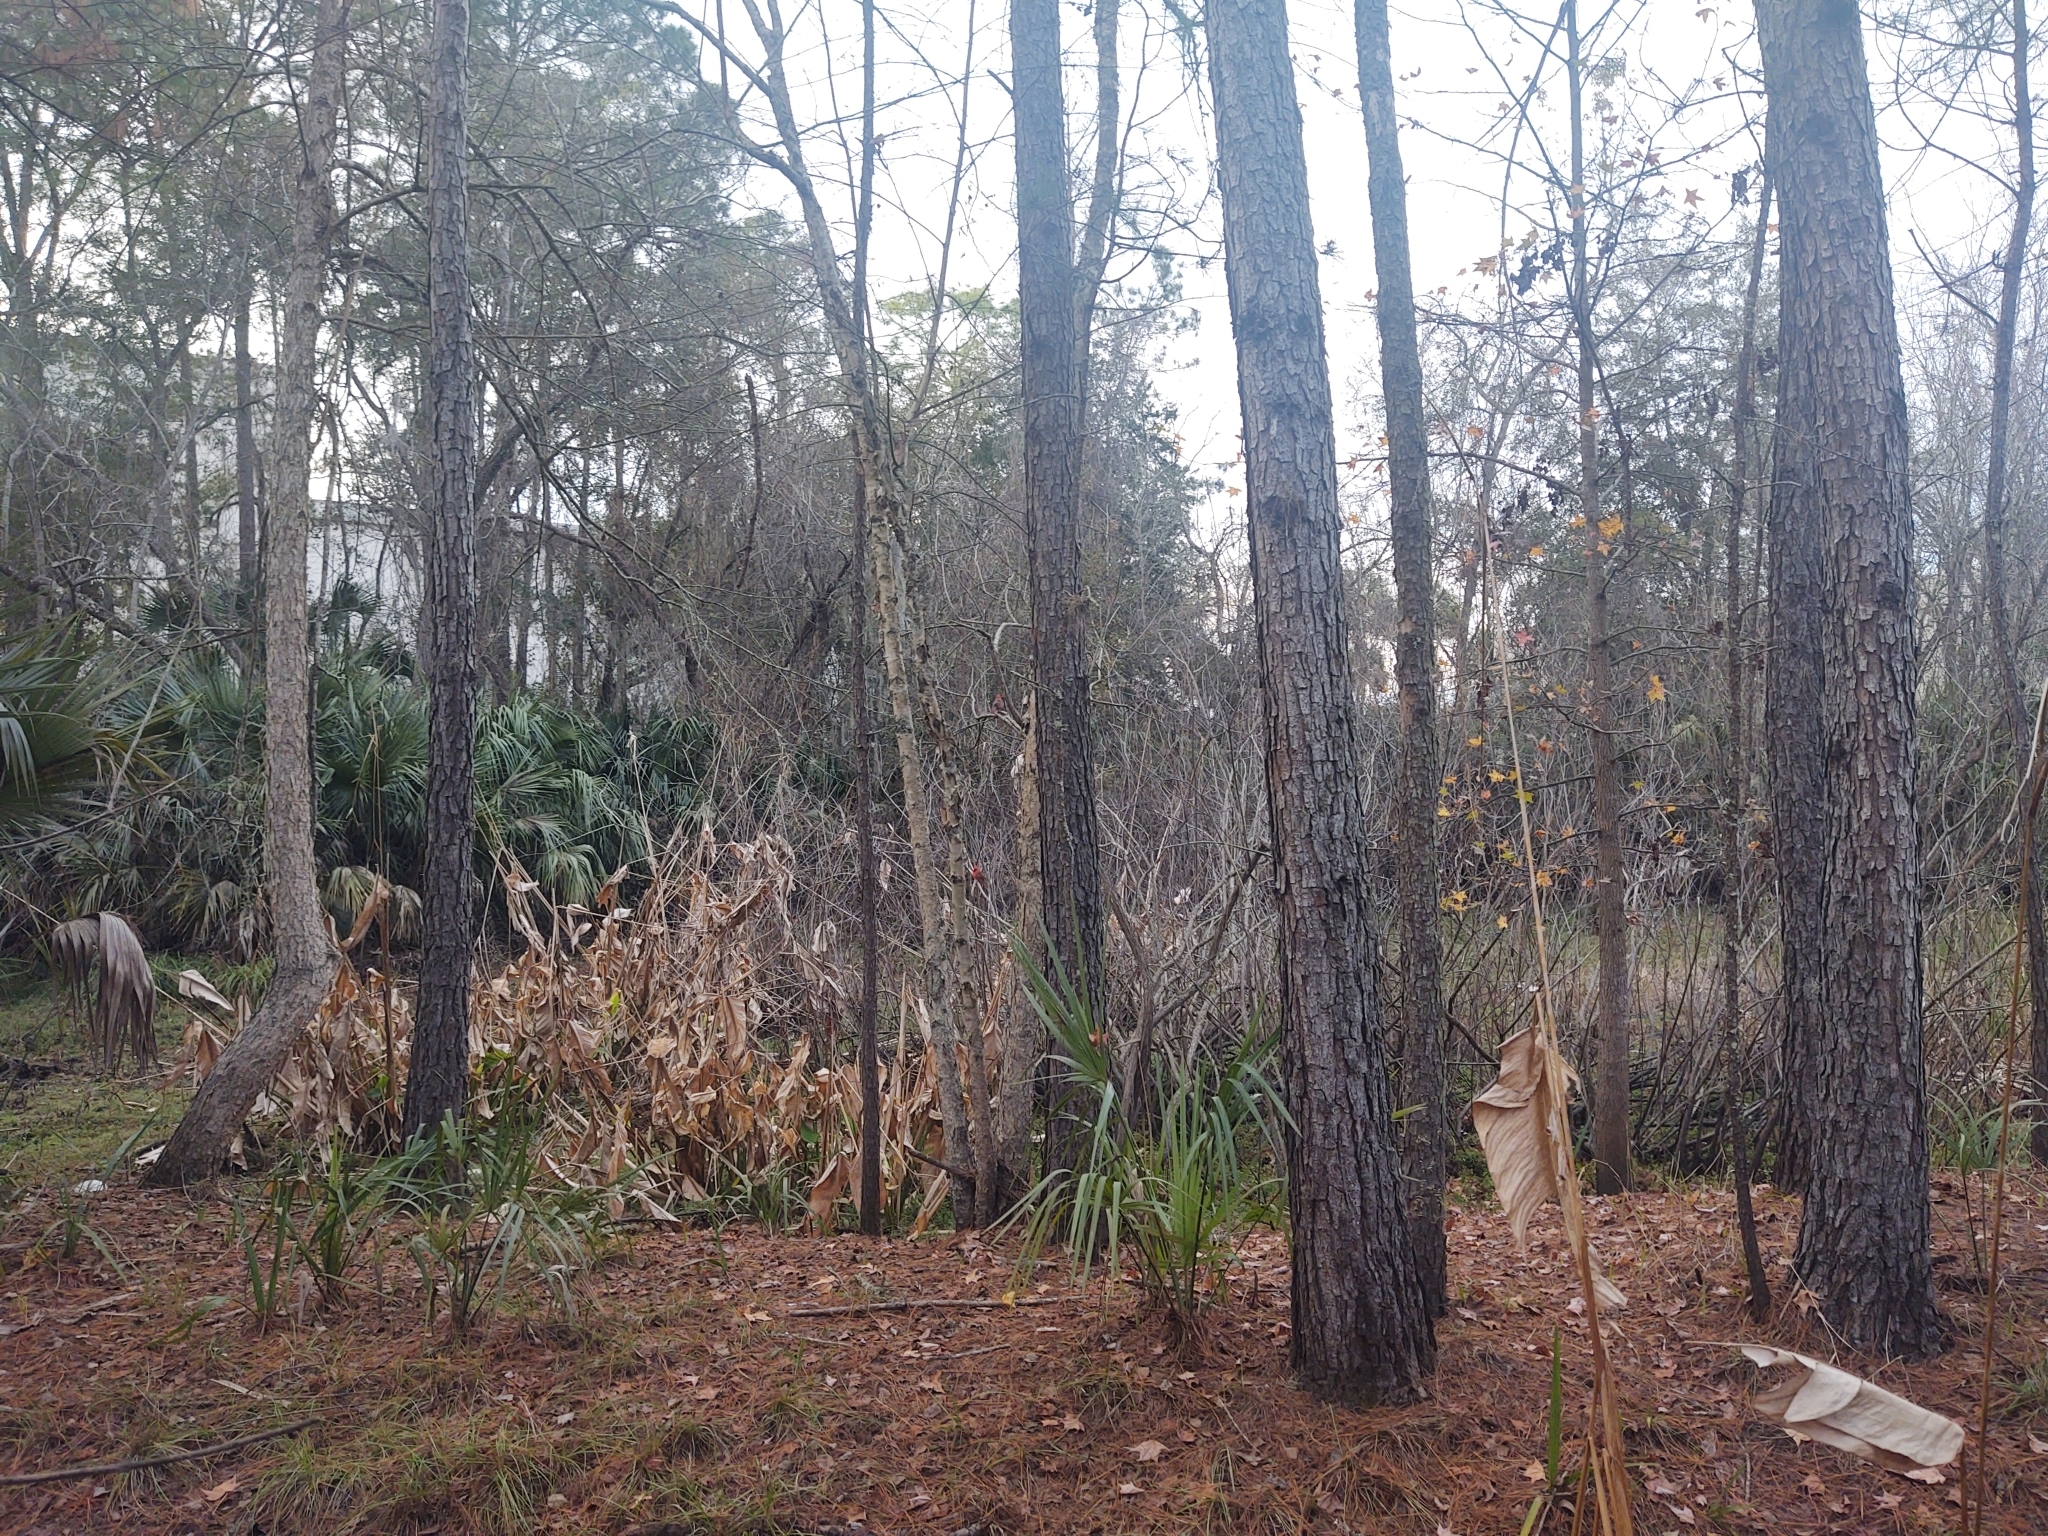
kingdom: Animalia
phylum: Chordata
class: Aves
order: Passeriformes
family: Cardinalidae
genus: Cardinalis
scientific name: Cardinalis cardinalis
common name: Northern cardinal
